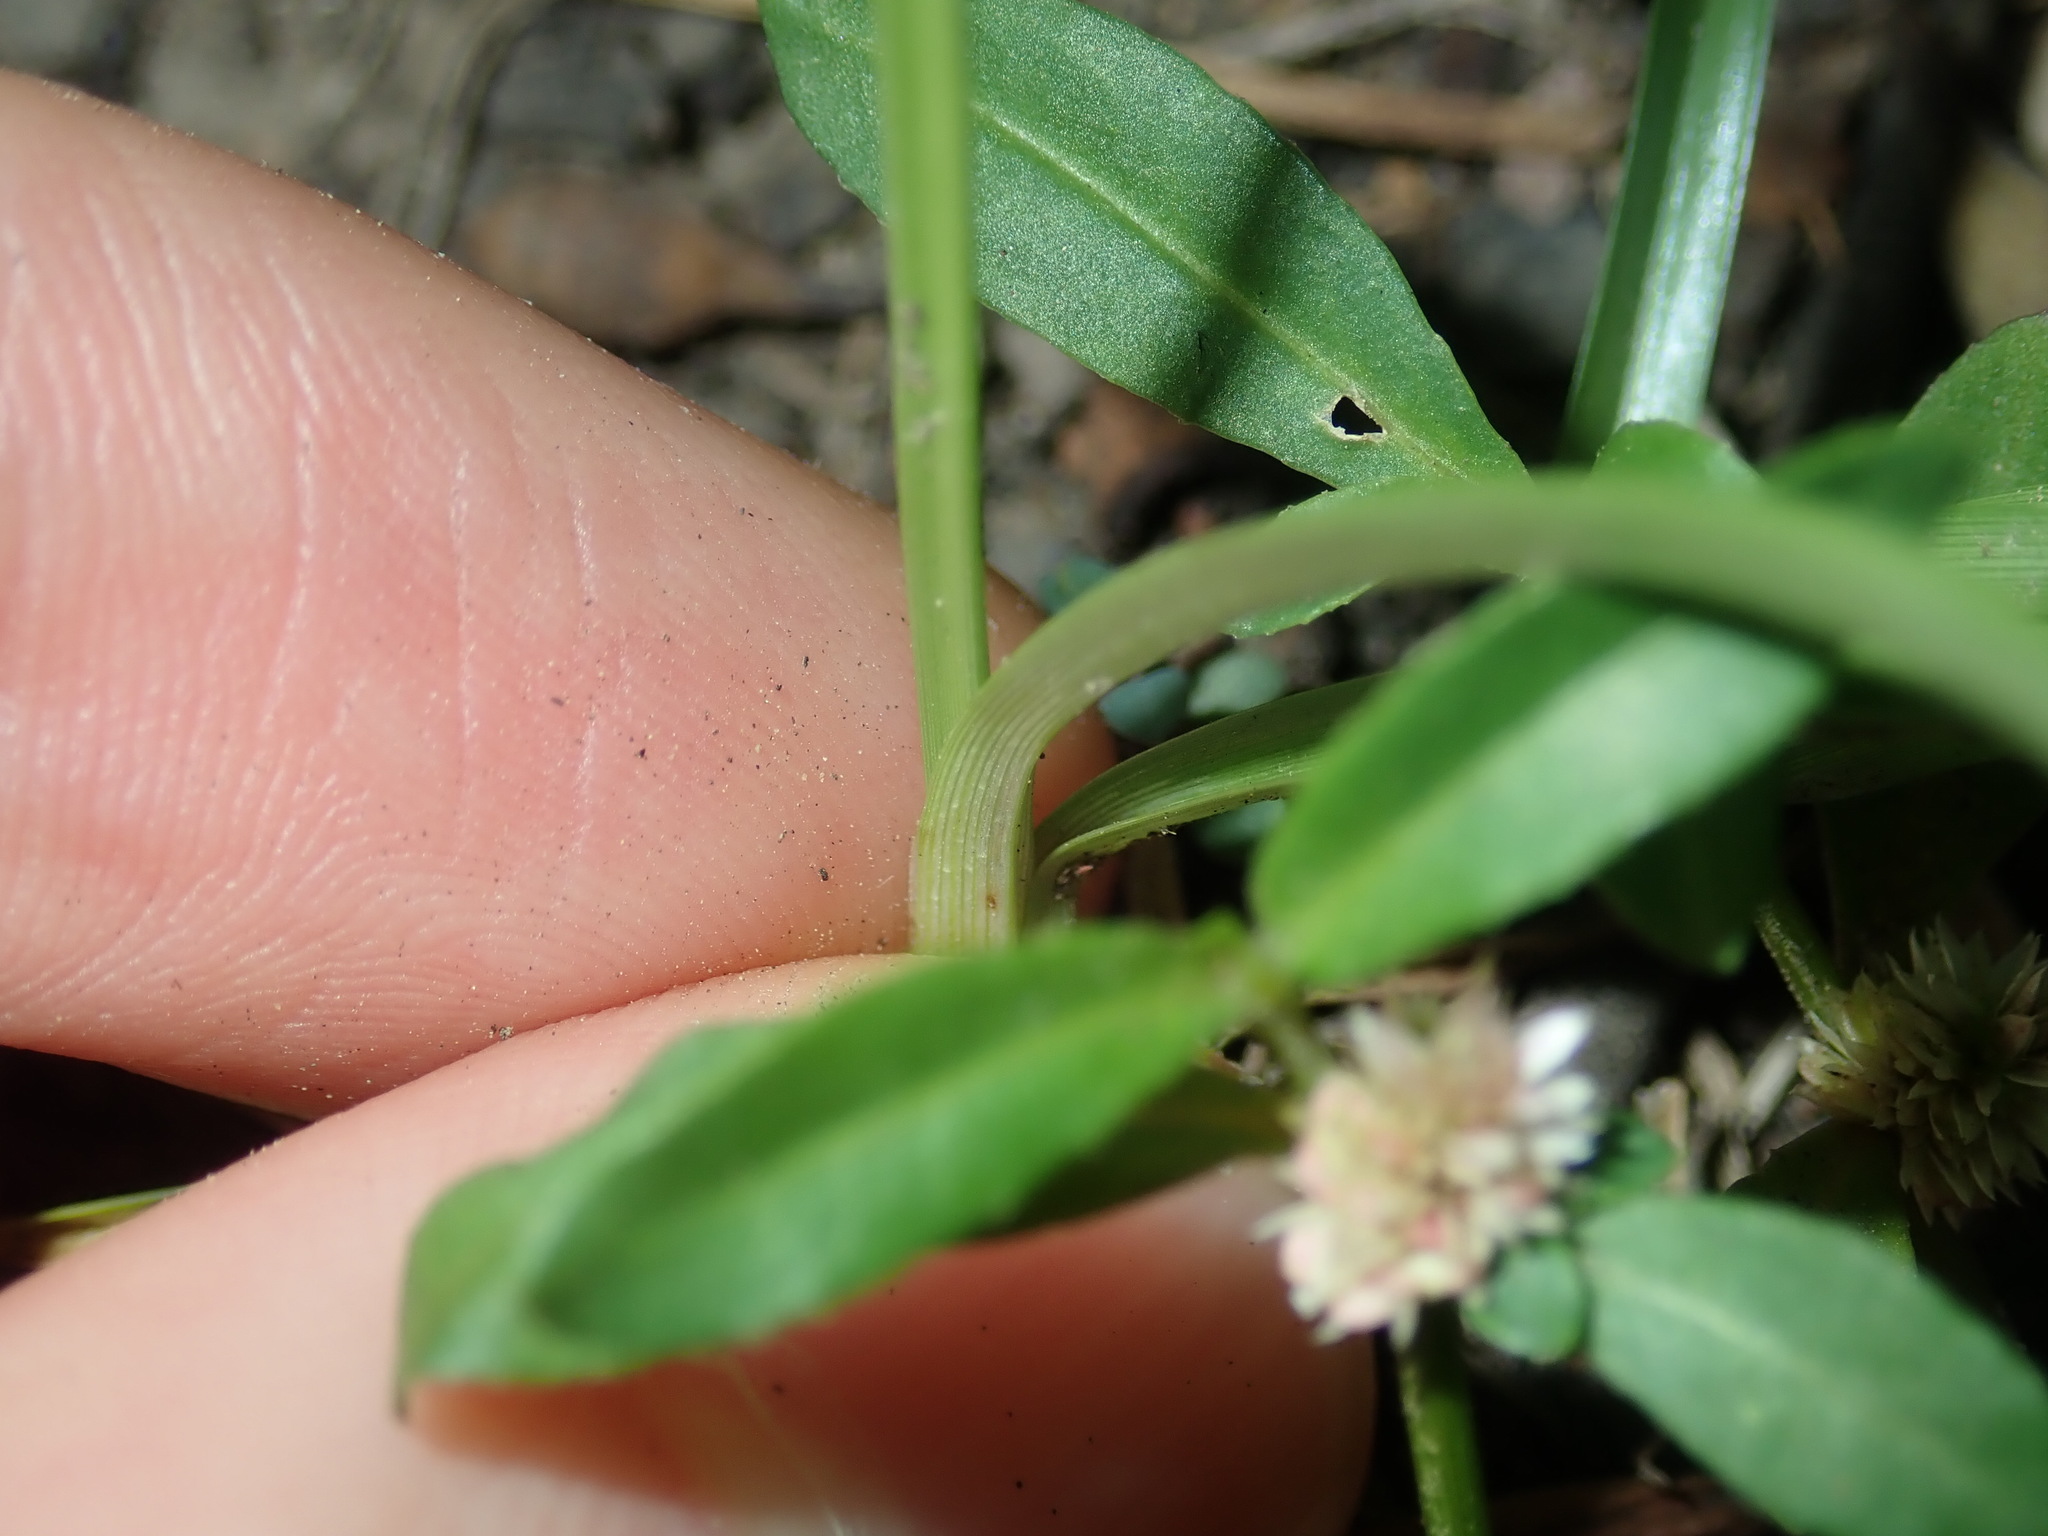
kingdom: Plantae
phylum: Tracheophyta
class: Liliopsida
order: Poales
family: Cyperaceae
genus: Cyperus
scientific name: Cyperus aggregatus
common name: Inflatedscale flatsedge
